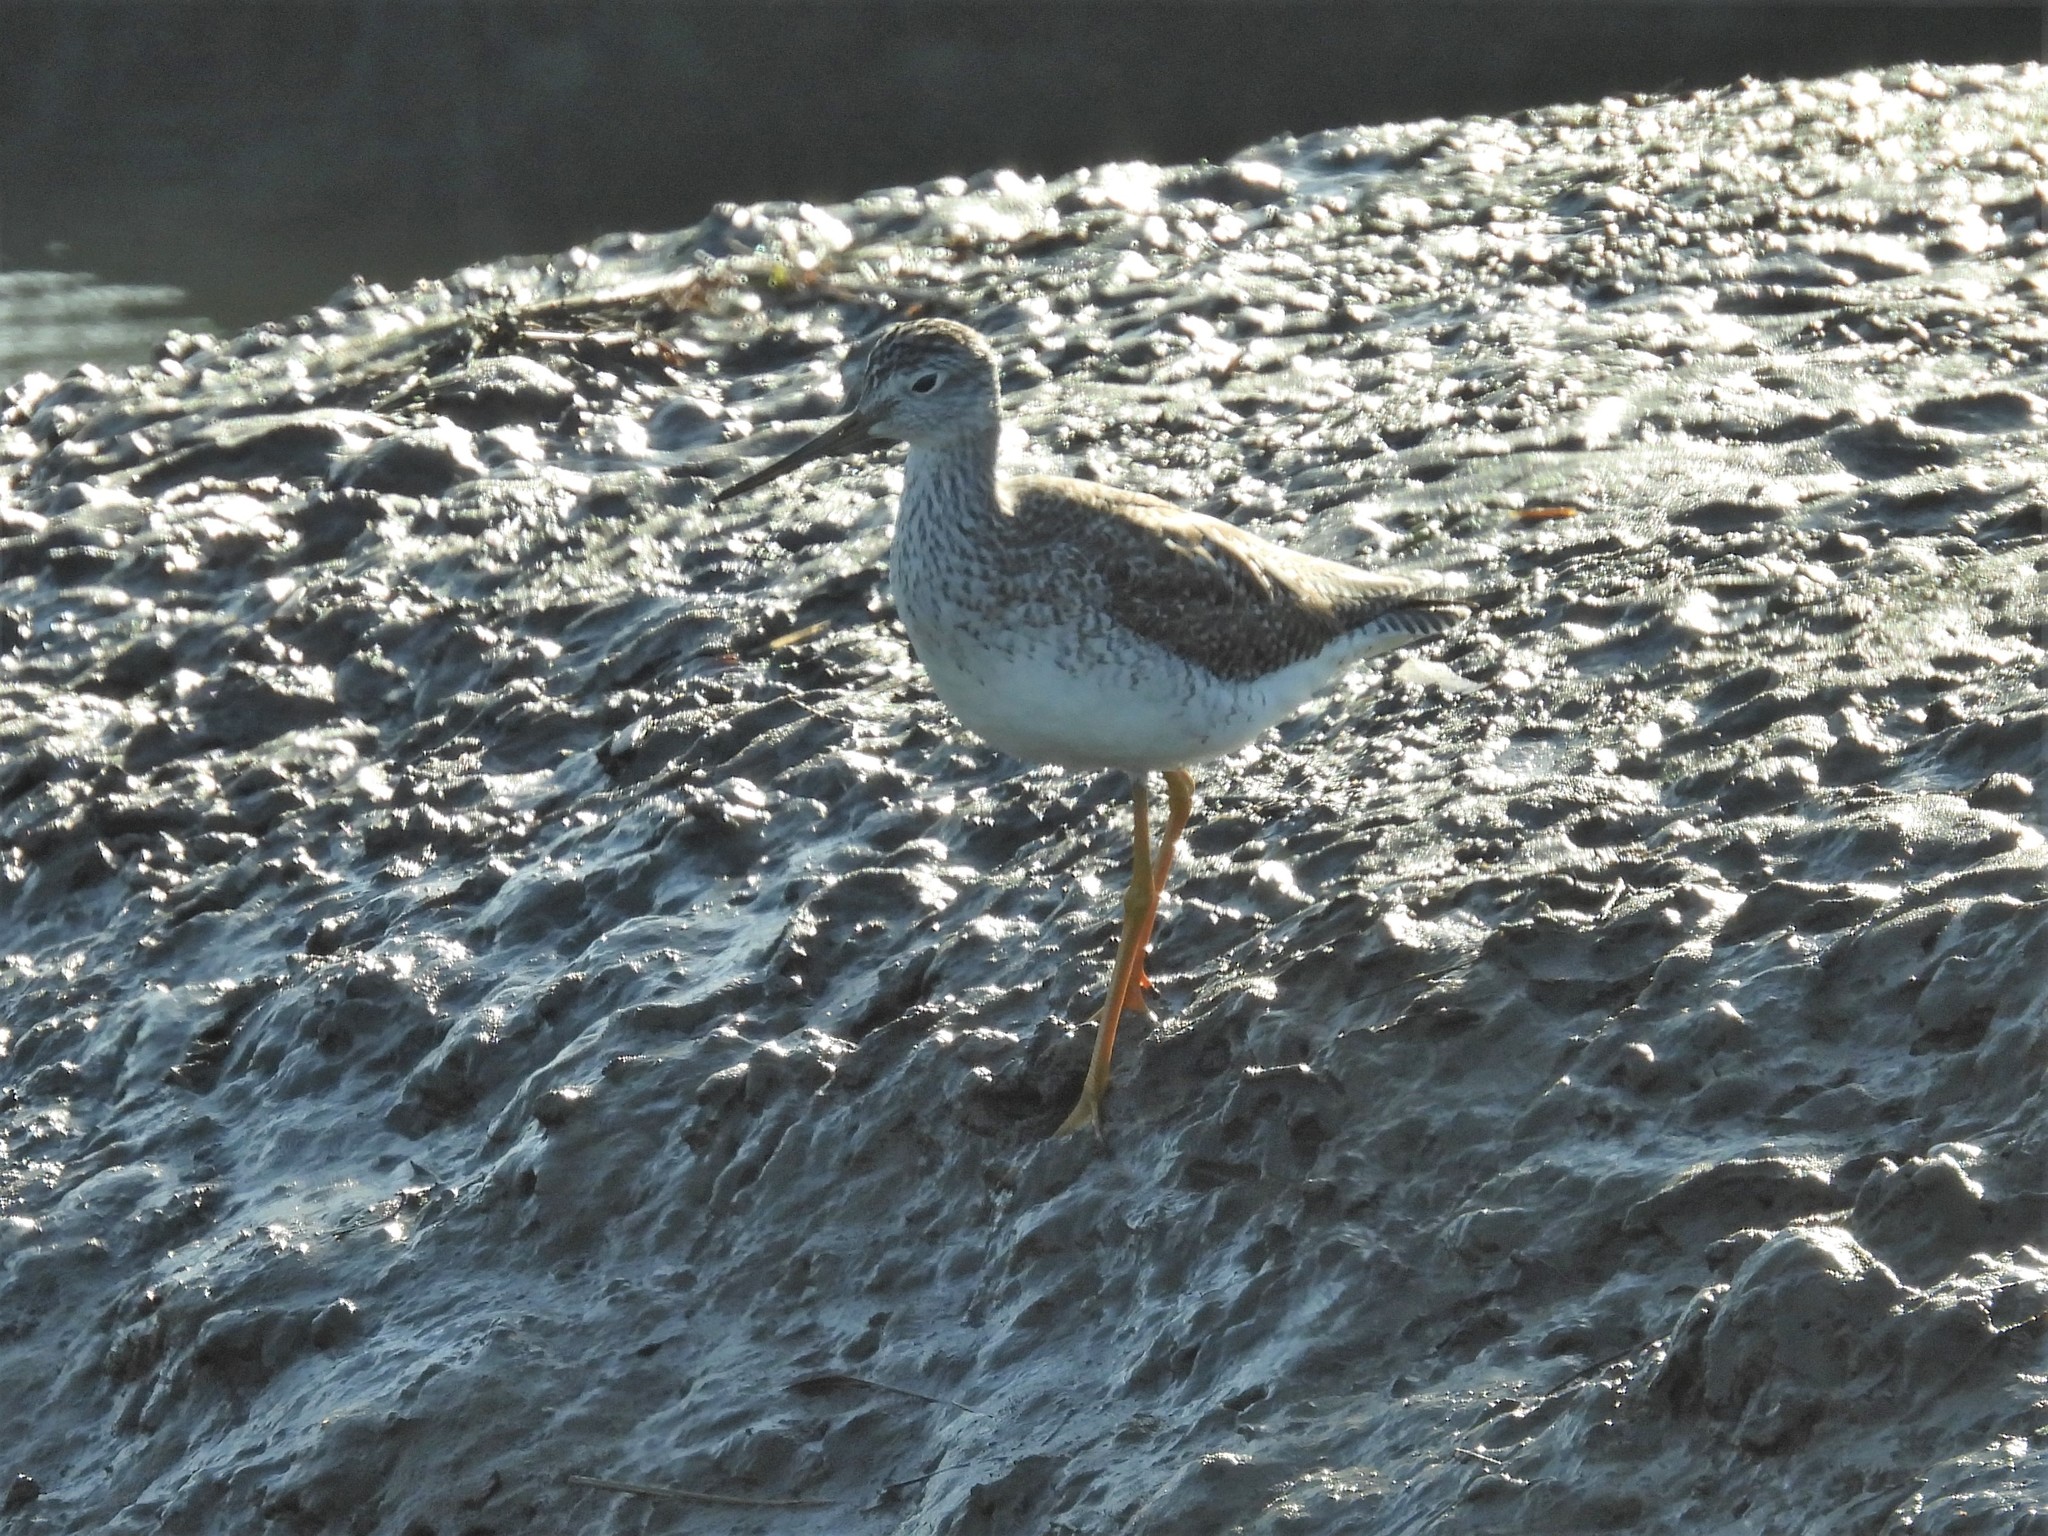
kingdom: Animalia
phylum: Chordata
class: Aves
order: Charadriiformes
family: Scolopacidae
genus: Tringa
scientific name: Tringa melanoleuca
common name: Greater yellowlegs
